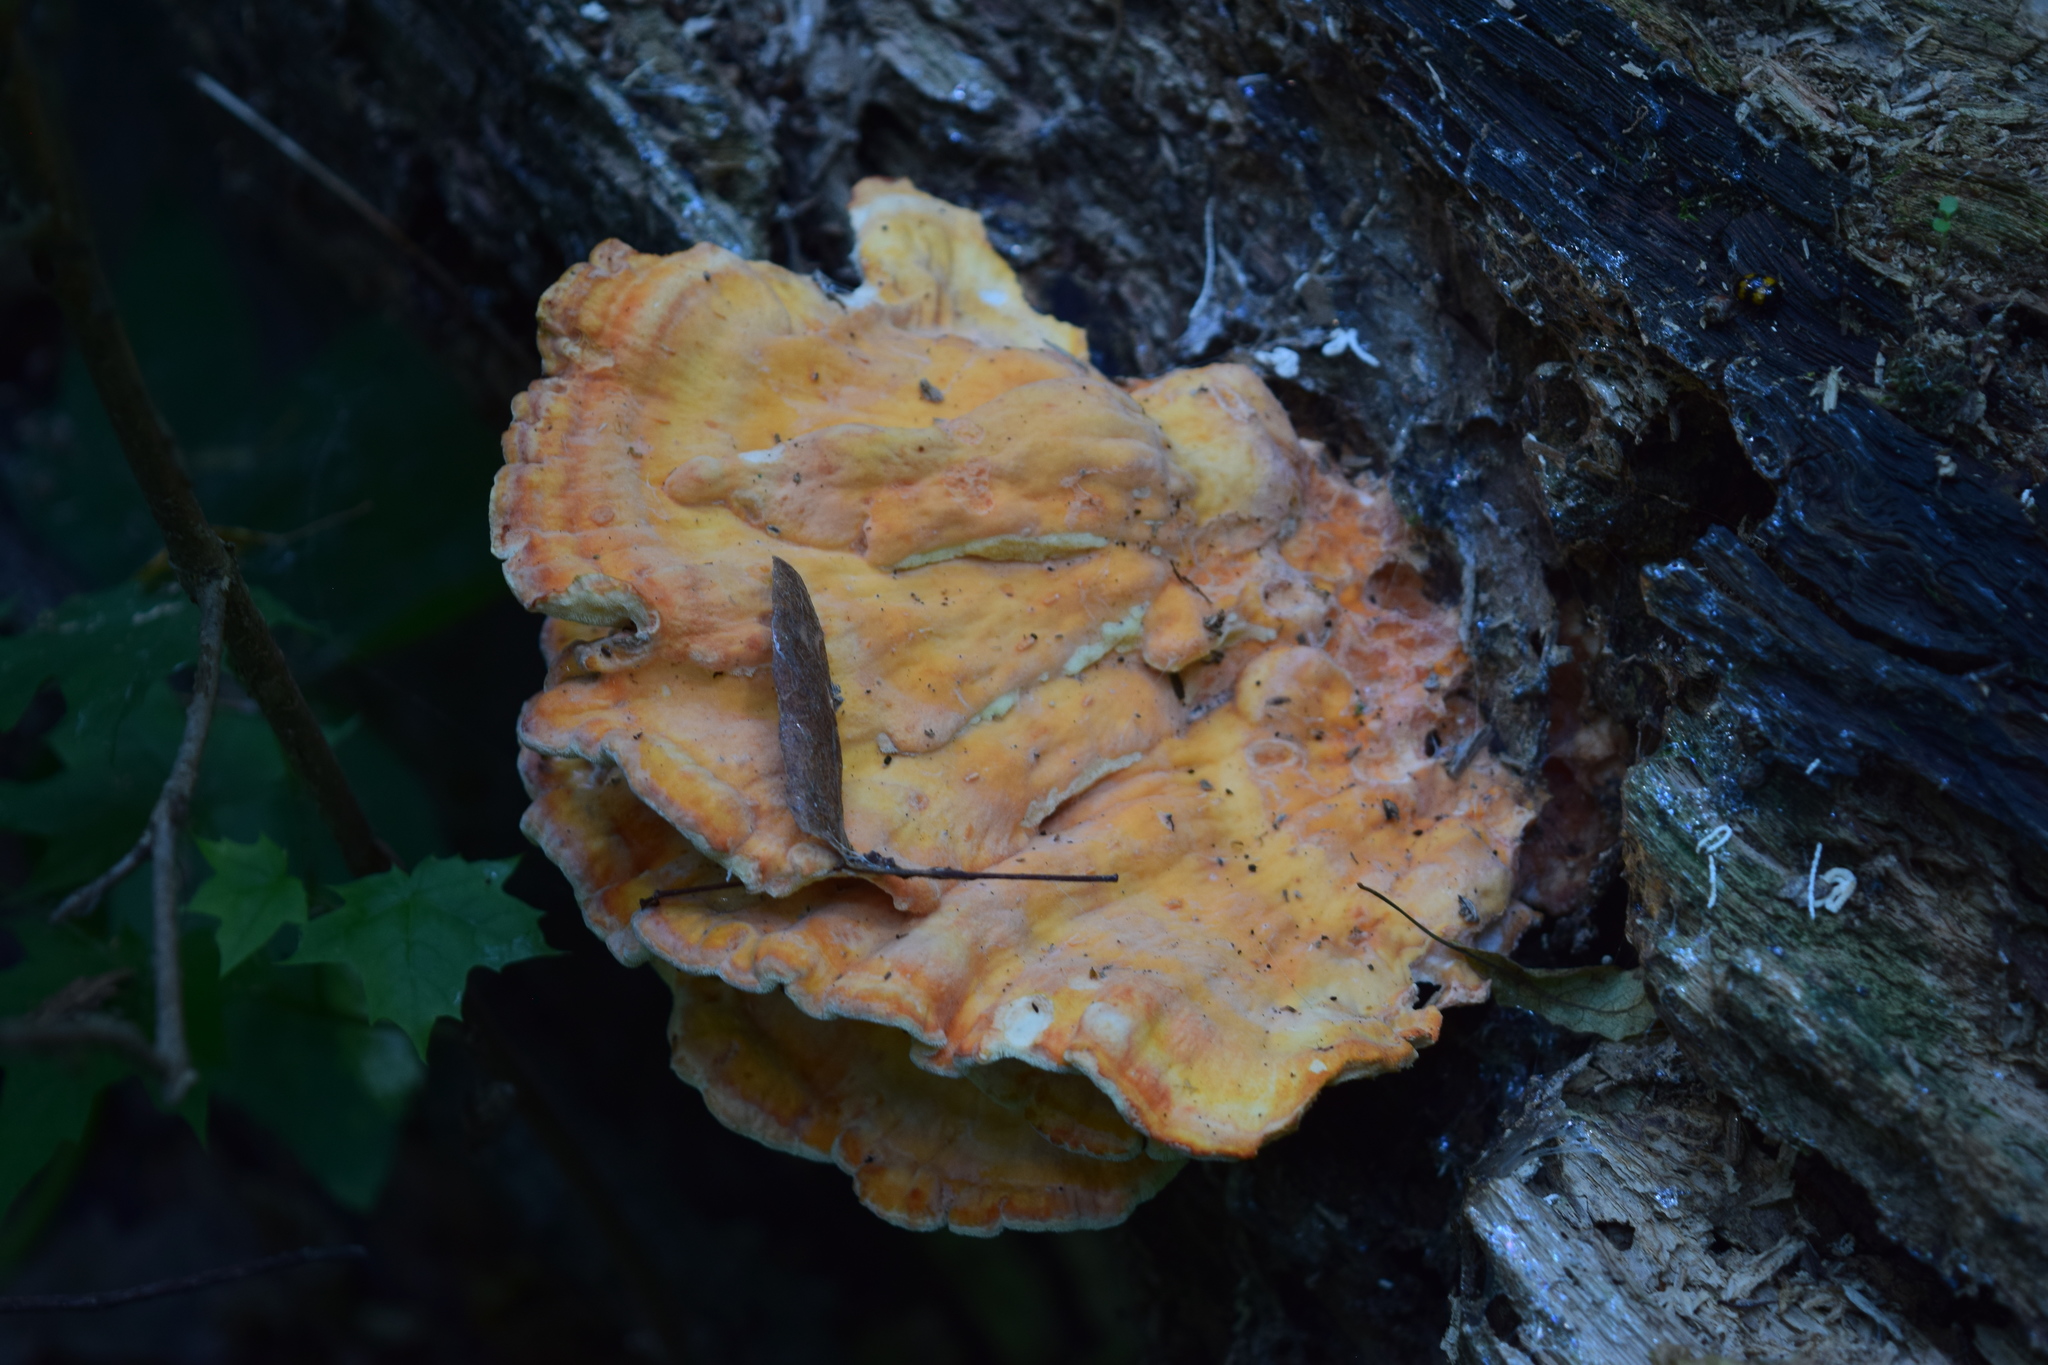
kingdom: Fungi
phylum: Basidiomycota
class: Agaricomycetes
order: Polyporales
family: Laetiporaceae
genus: Laetiporus
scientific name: Laetiporus sulphureus
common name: Chicken of the woods
